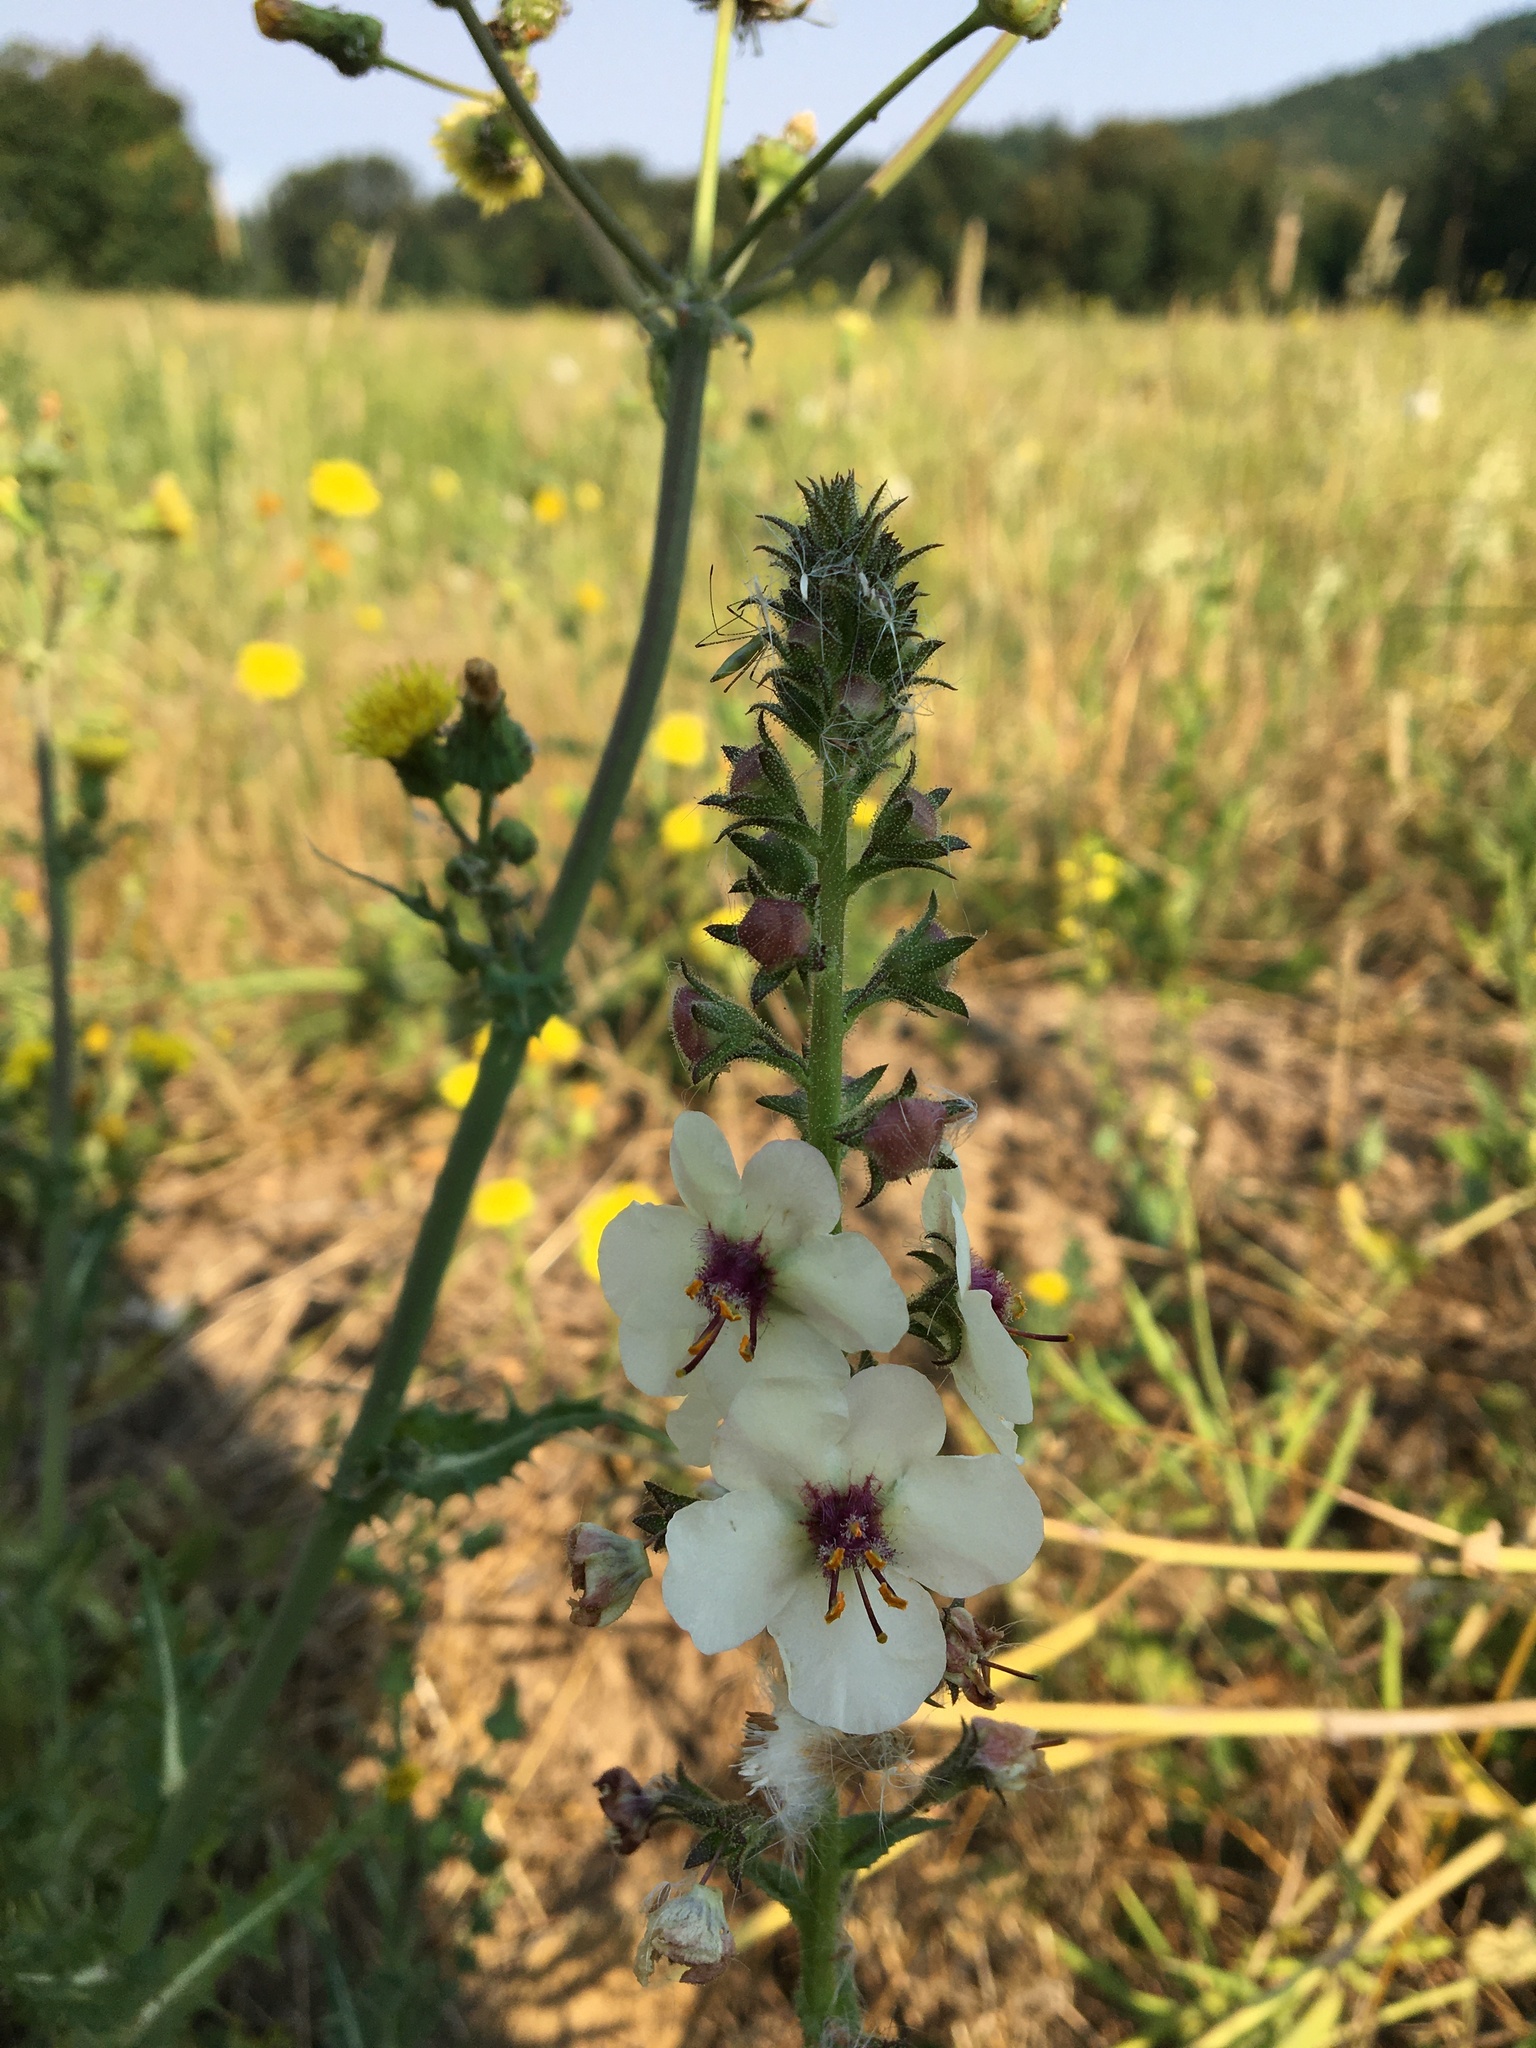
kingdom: Plantae
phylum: Tracheophyta
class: Magnoliopsida
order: Lamiales
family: Scrophulariaceae
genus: Verbascum
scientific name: Verbascum blattaria
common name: Moth mullein
